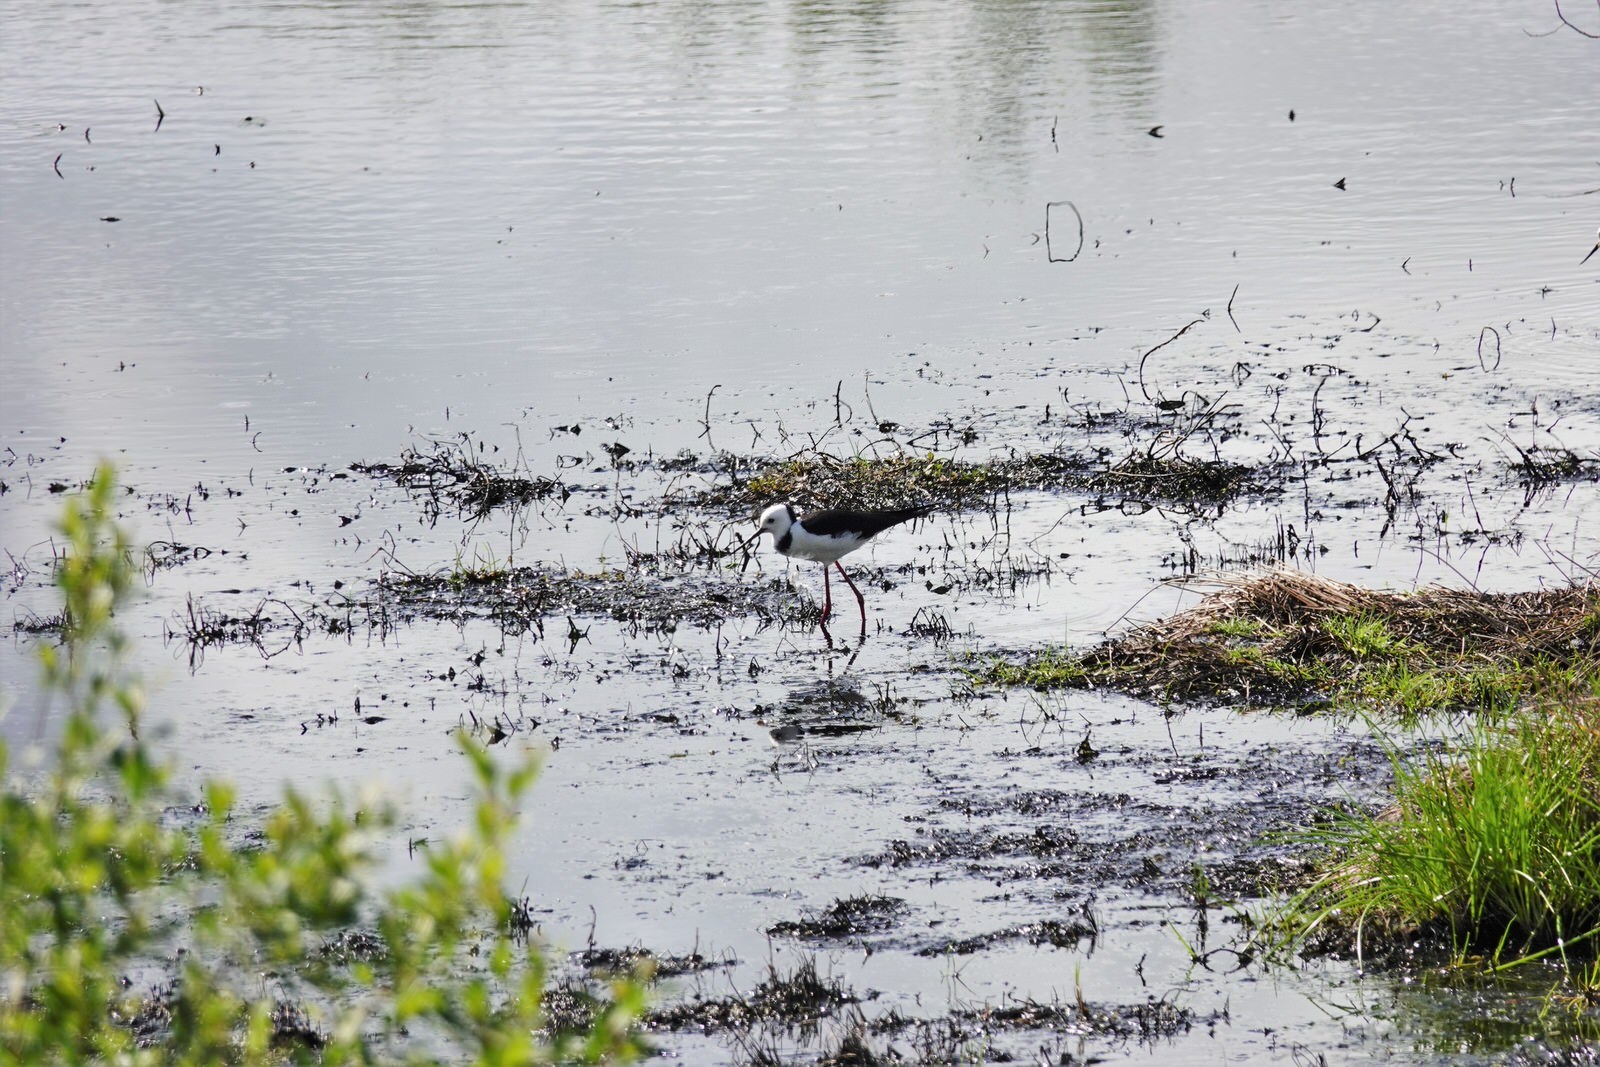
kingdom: Animalia
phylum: Chordata
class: Aves
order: Charadriiformes
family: Recurvirostridae
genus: Himantopus
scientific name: Himantopus leucocephalus
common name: White-headed stilt
